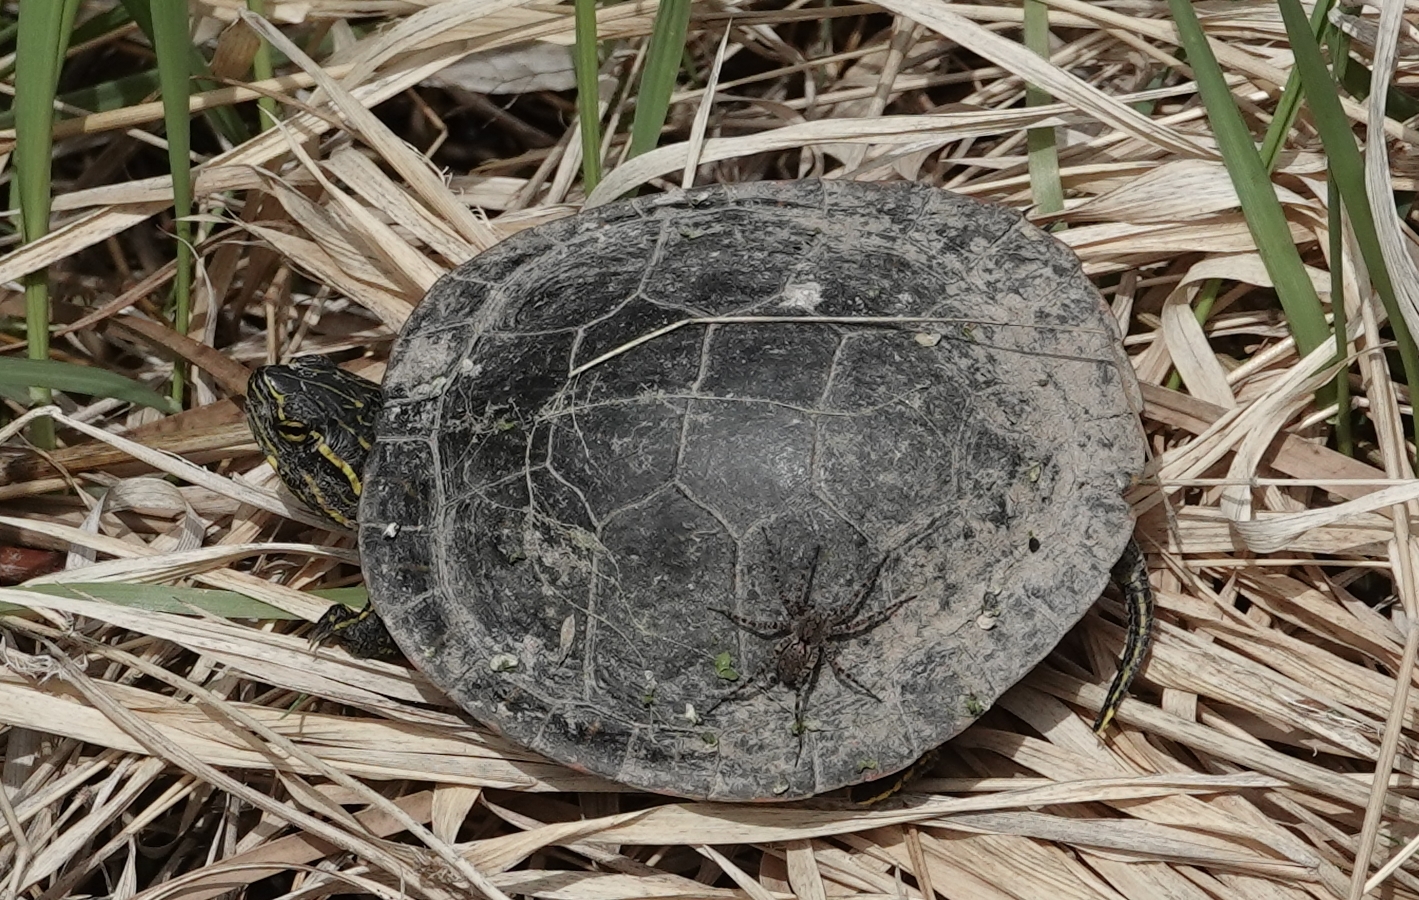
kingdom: Animalia
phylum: Chordata
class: Testudines
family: Emydidae
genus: Chrysemys
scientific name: Chrysemys picta
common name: Painted turtle
